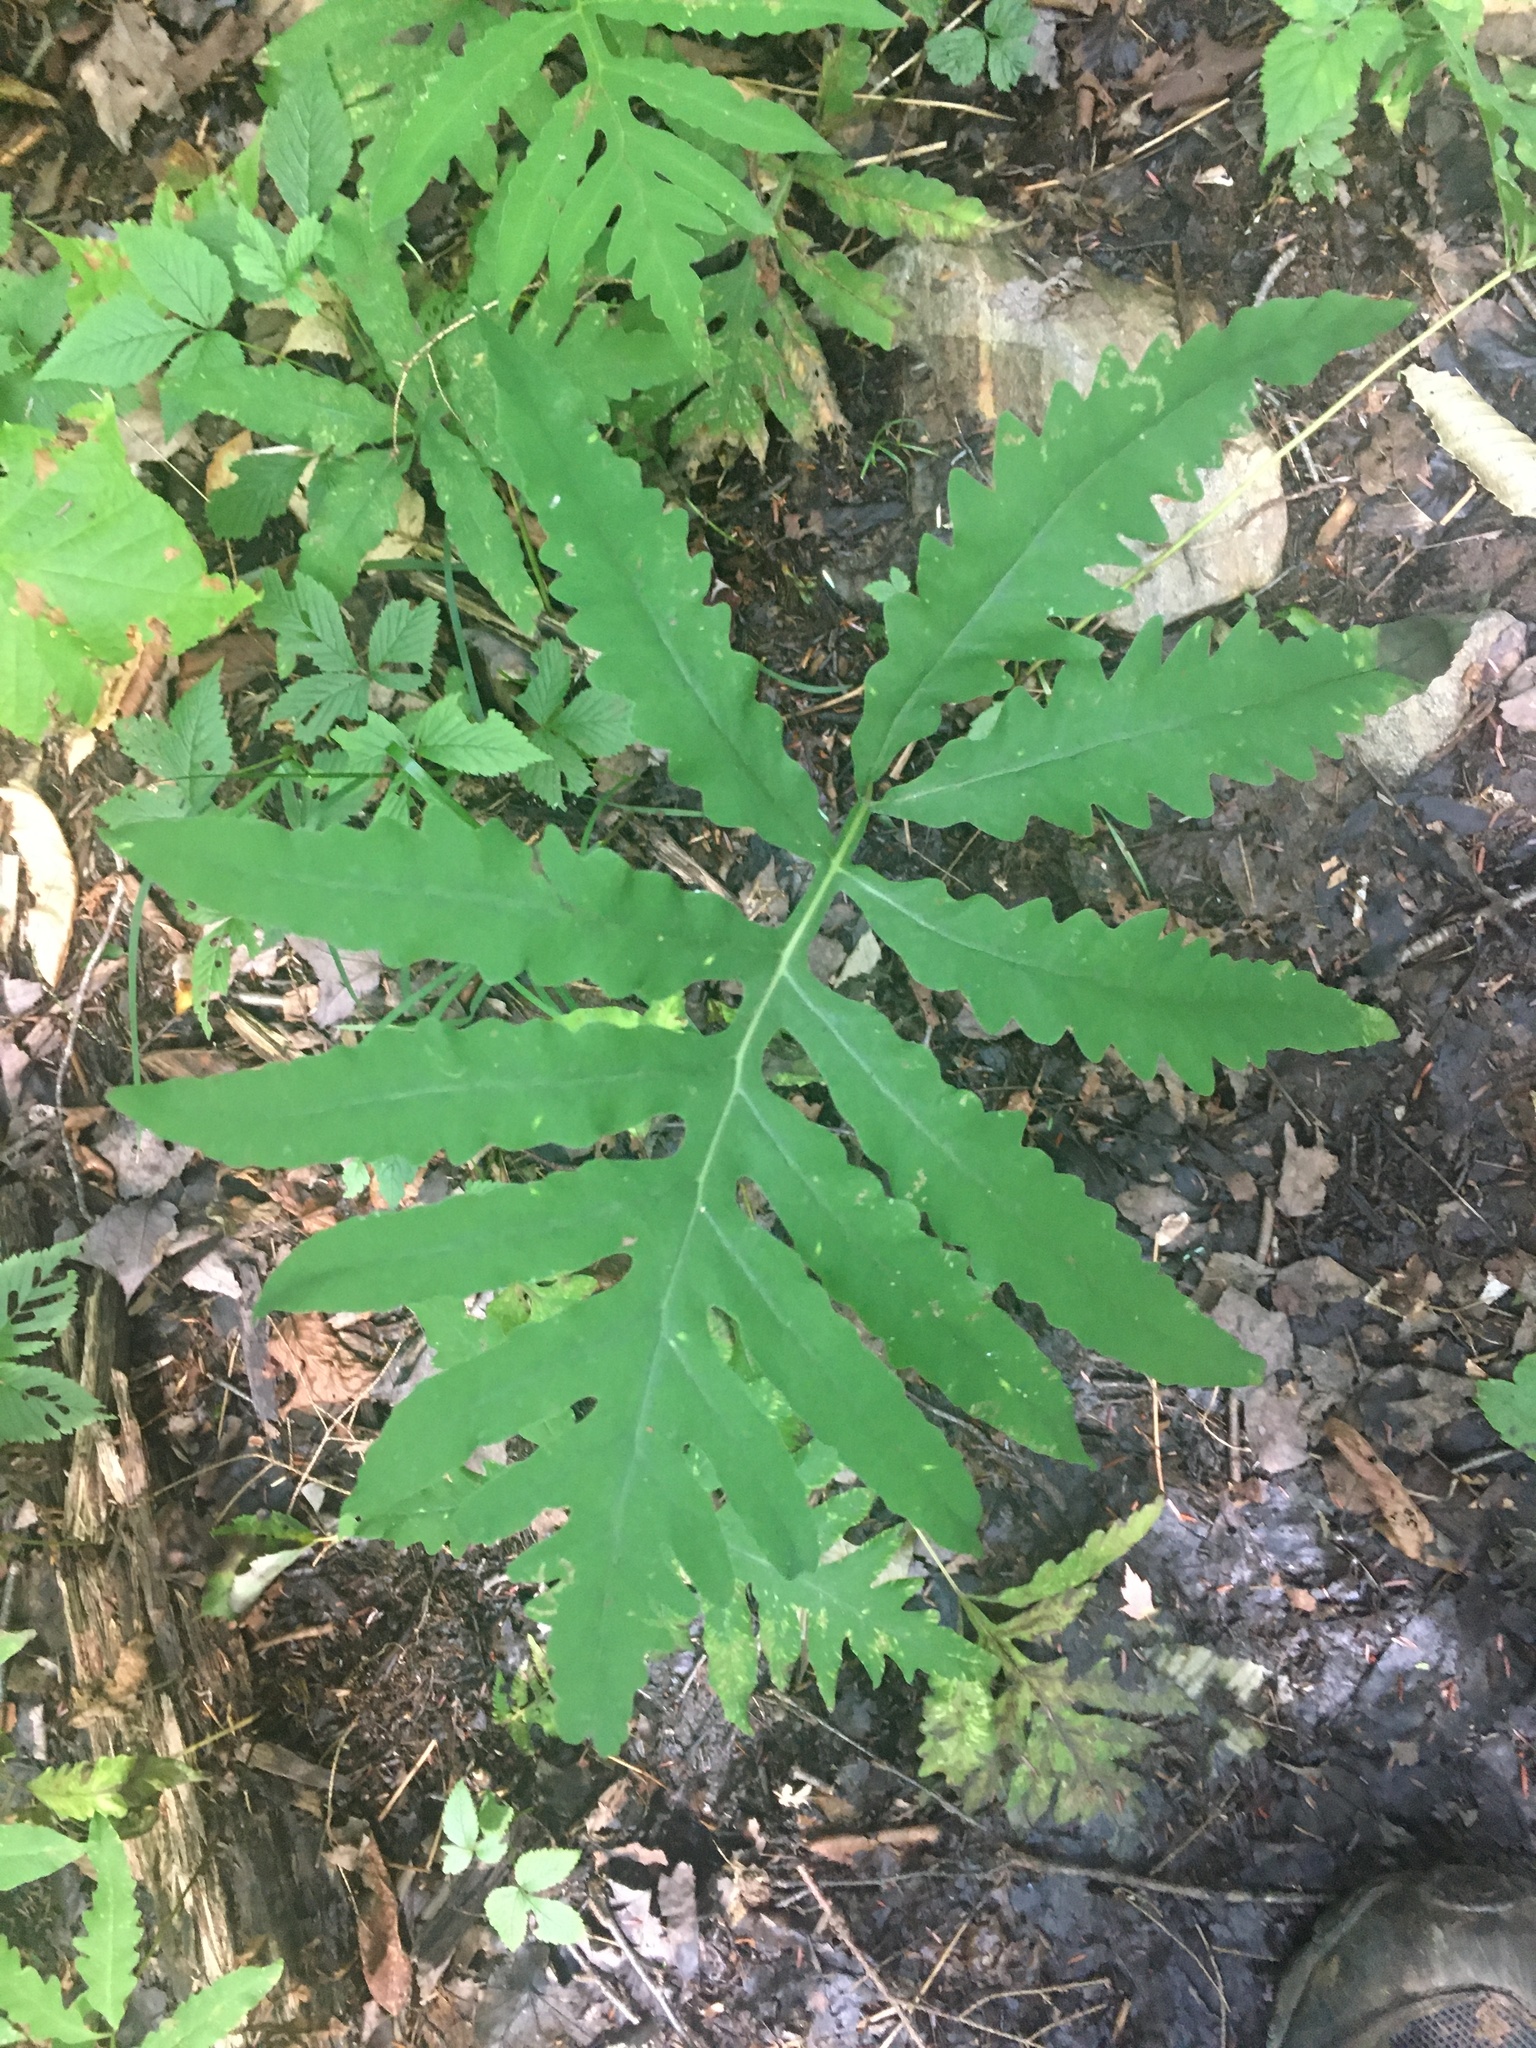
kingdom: Plantae
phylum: Tracheophyta
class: Polypodiopsida
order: Polypodiales
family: Onocleaceae
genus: Onoclea
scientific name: Onoclea sensibilis
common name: Sensitive fern
